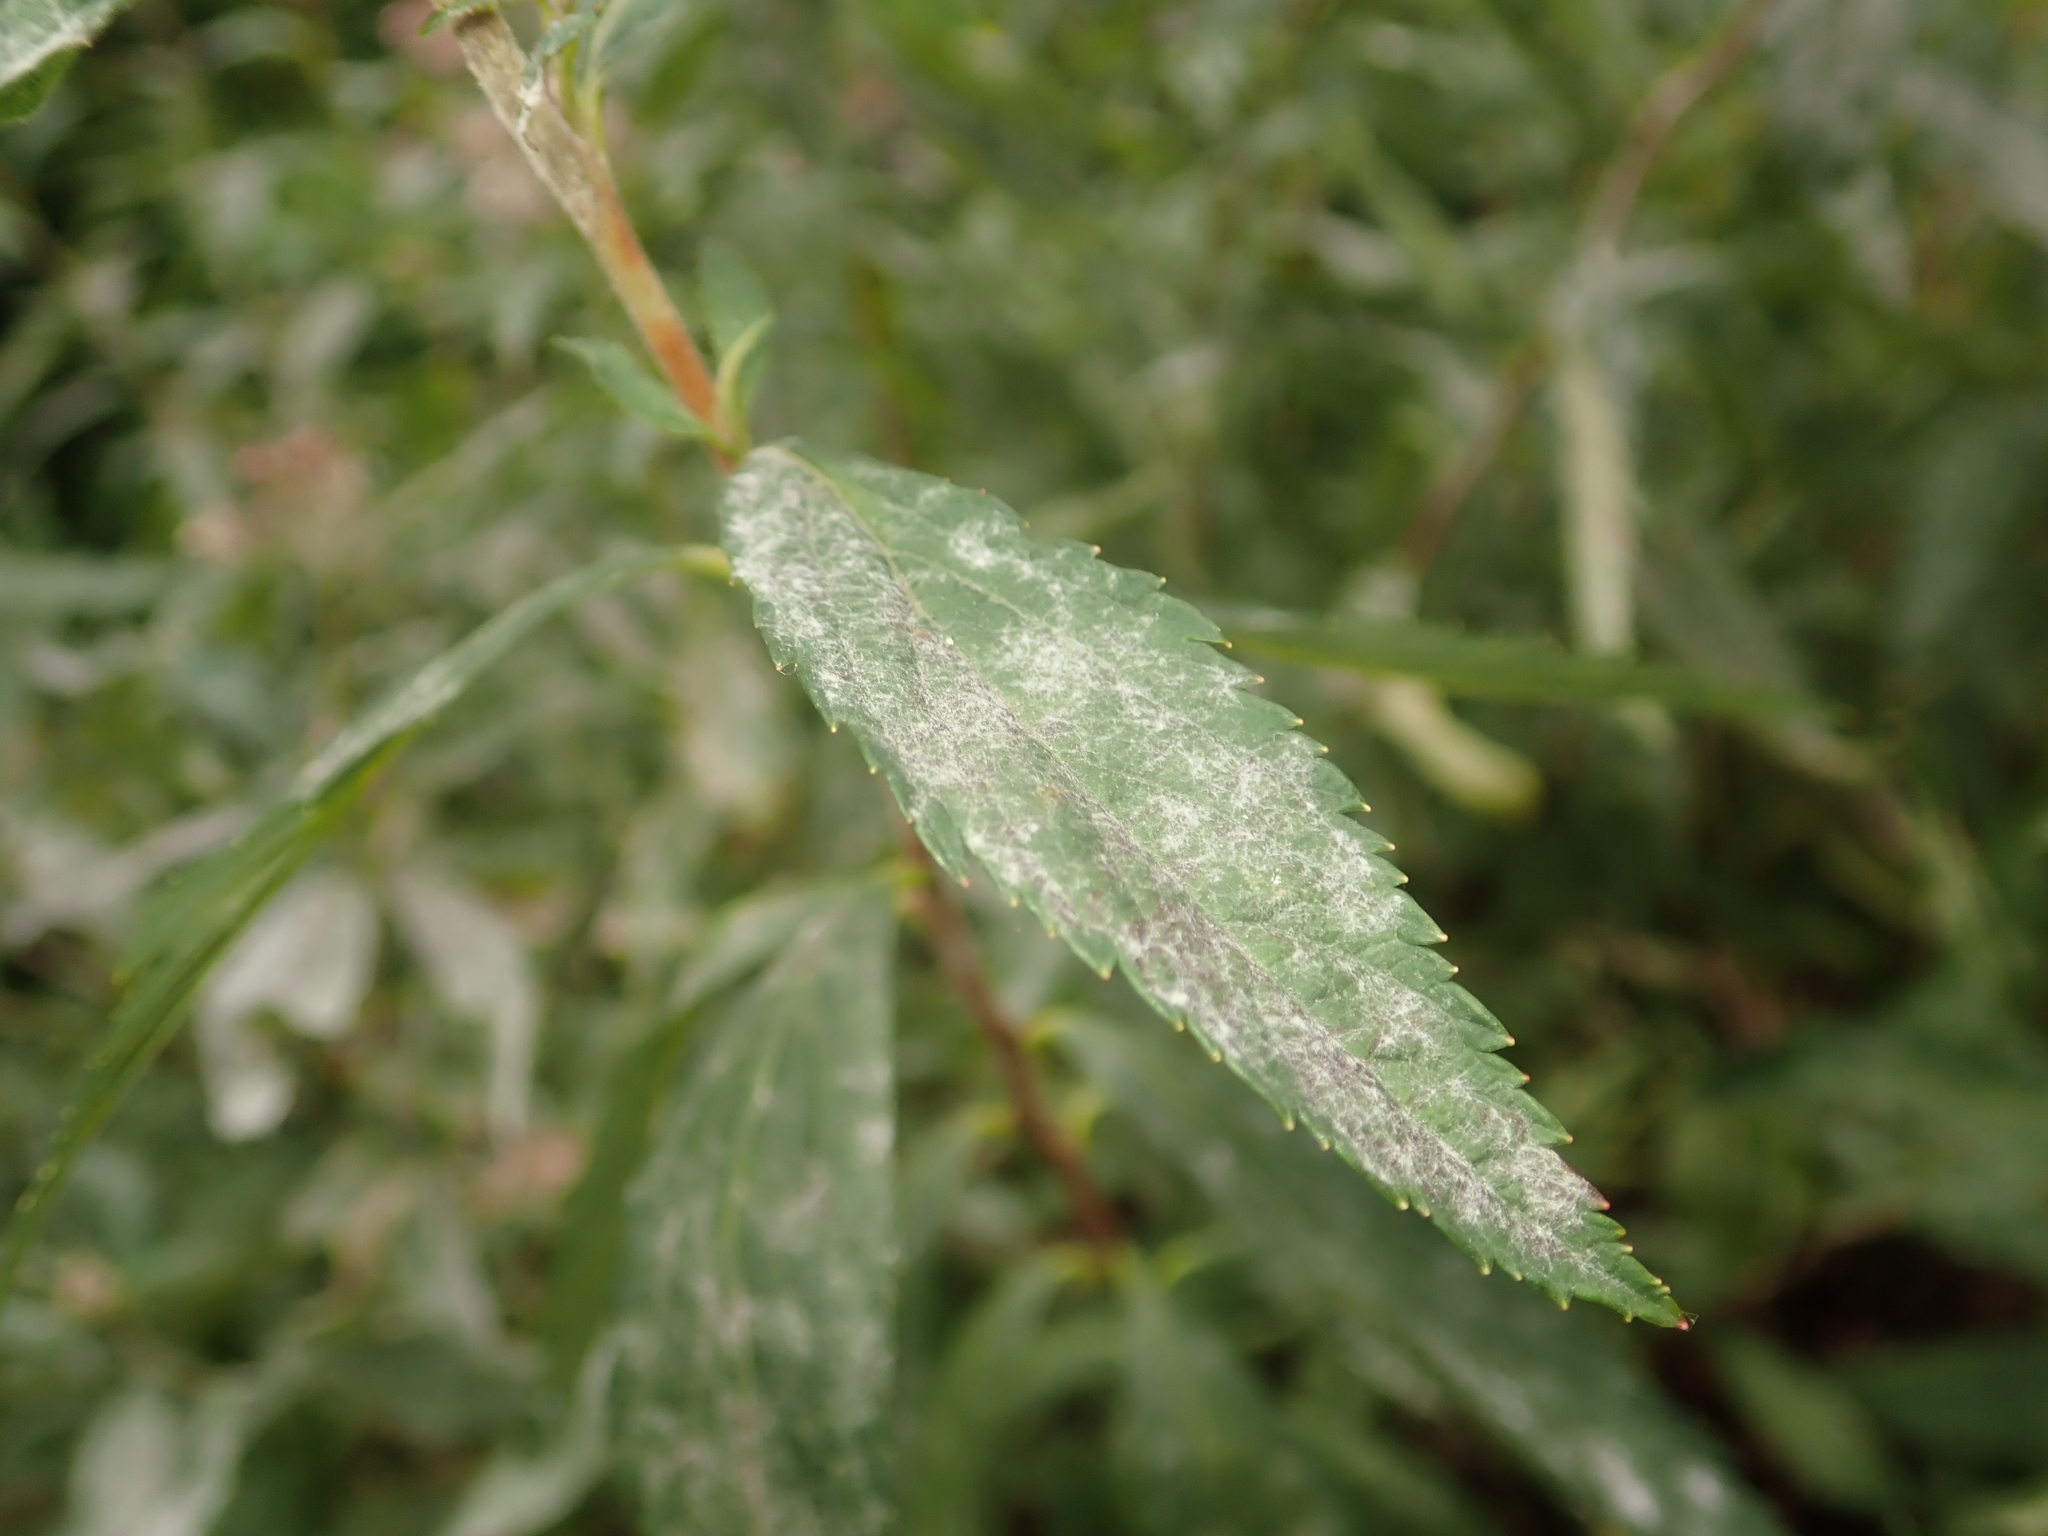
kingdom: Fungi
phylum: Ascomycota
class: Leotiomycetes
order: Helotiales
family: Erysiphaceae
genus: Podosphaera
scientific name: Podosphaera spiraeae
